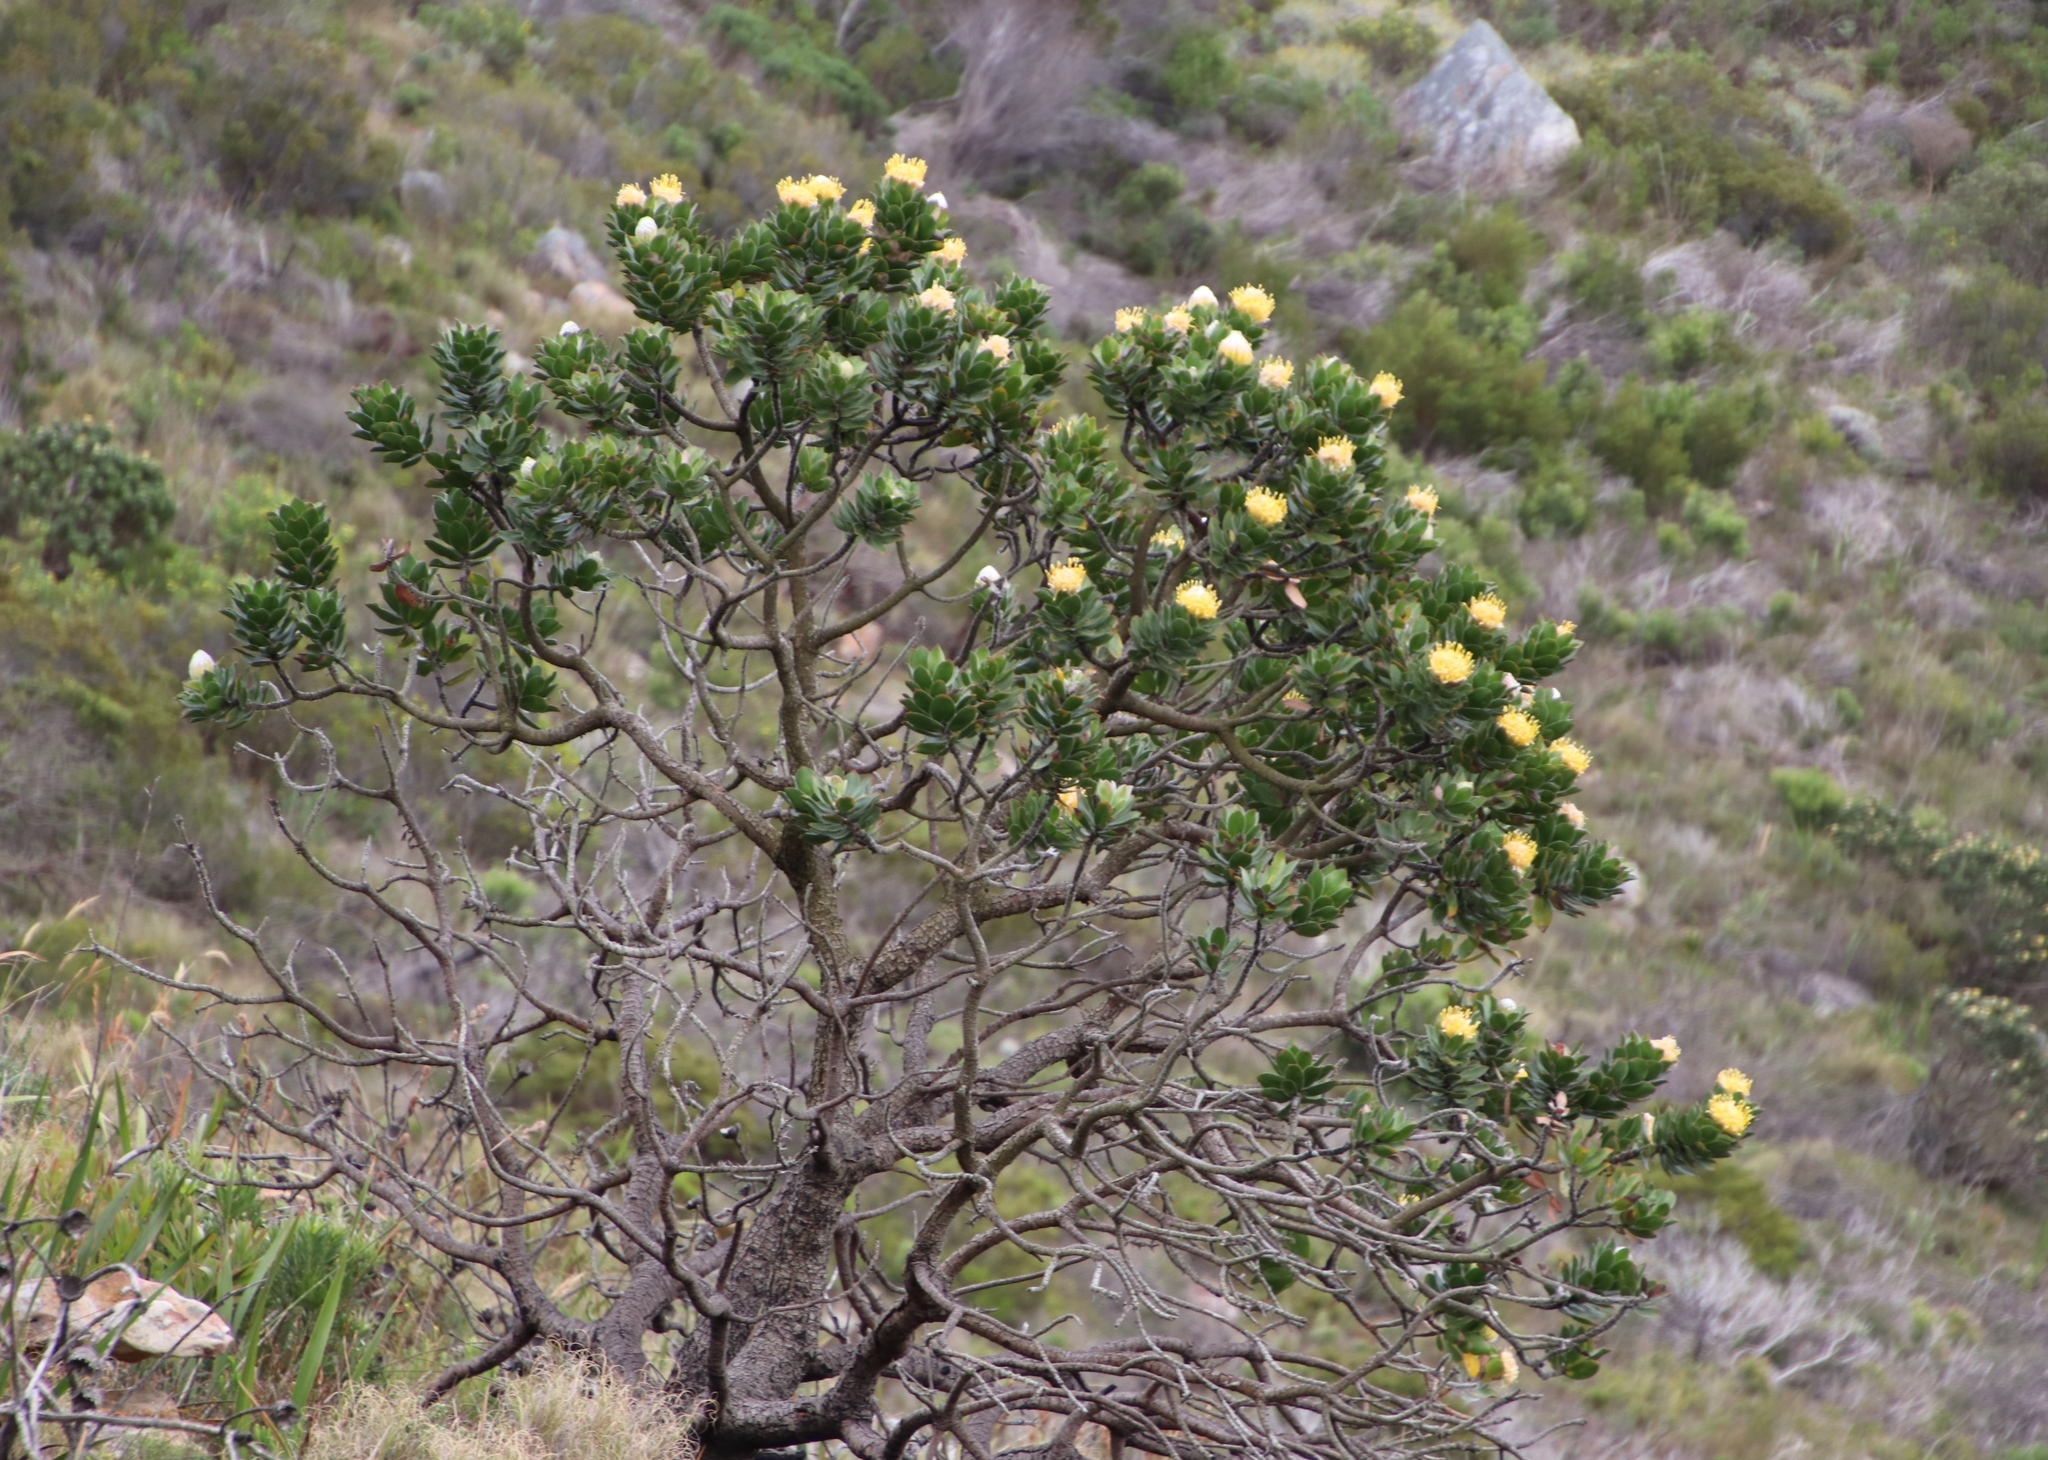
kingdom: Plantae
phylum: Tracheophyta
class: Magnoliopsida
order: Proteales
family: Proteaceae
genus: Leucospermum
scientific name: Leucospermum conocarpodendron
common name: Tree pincushion
